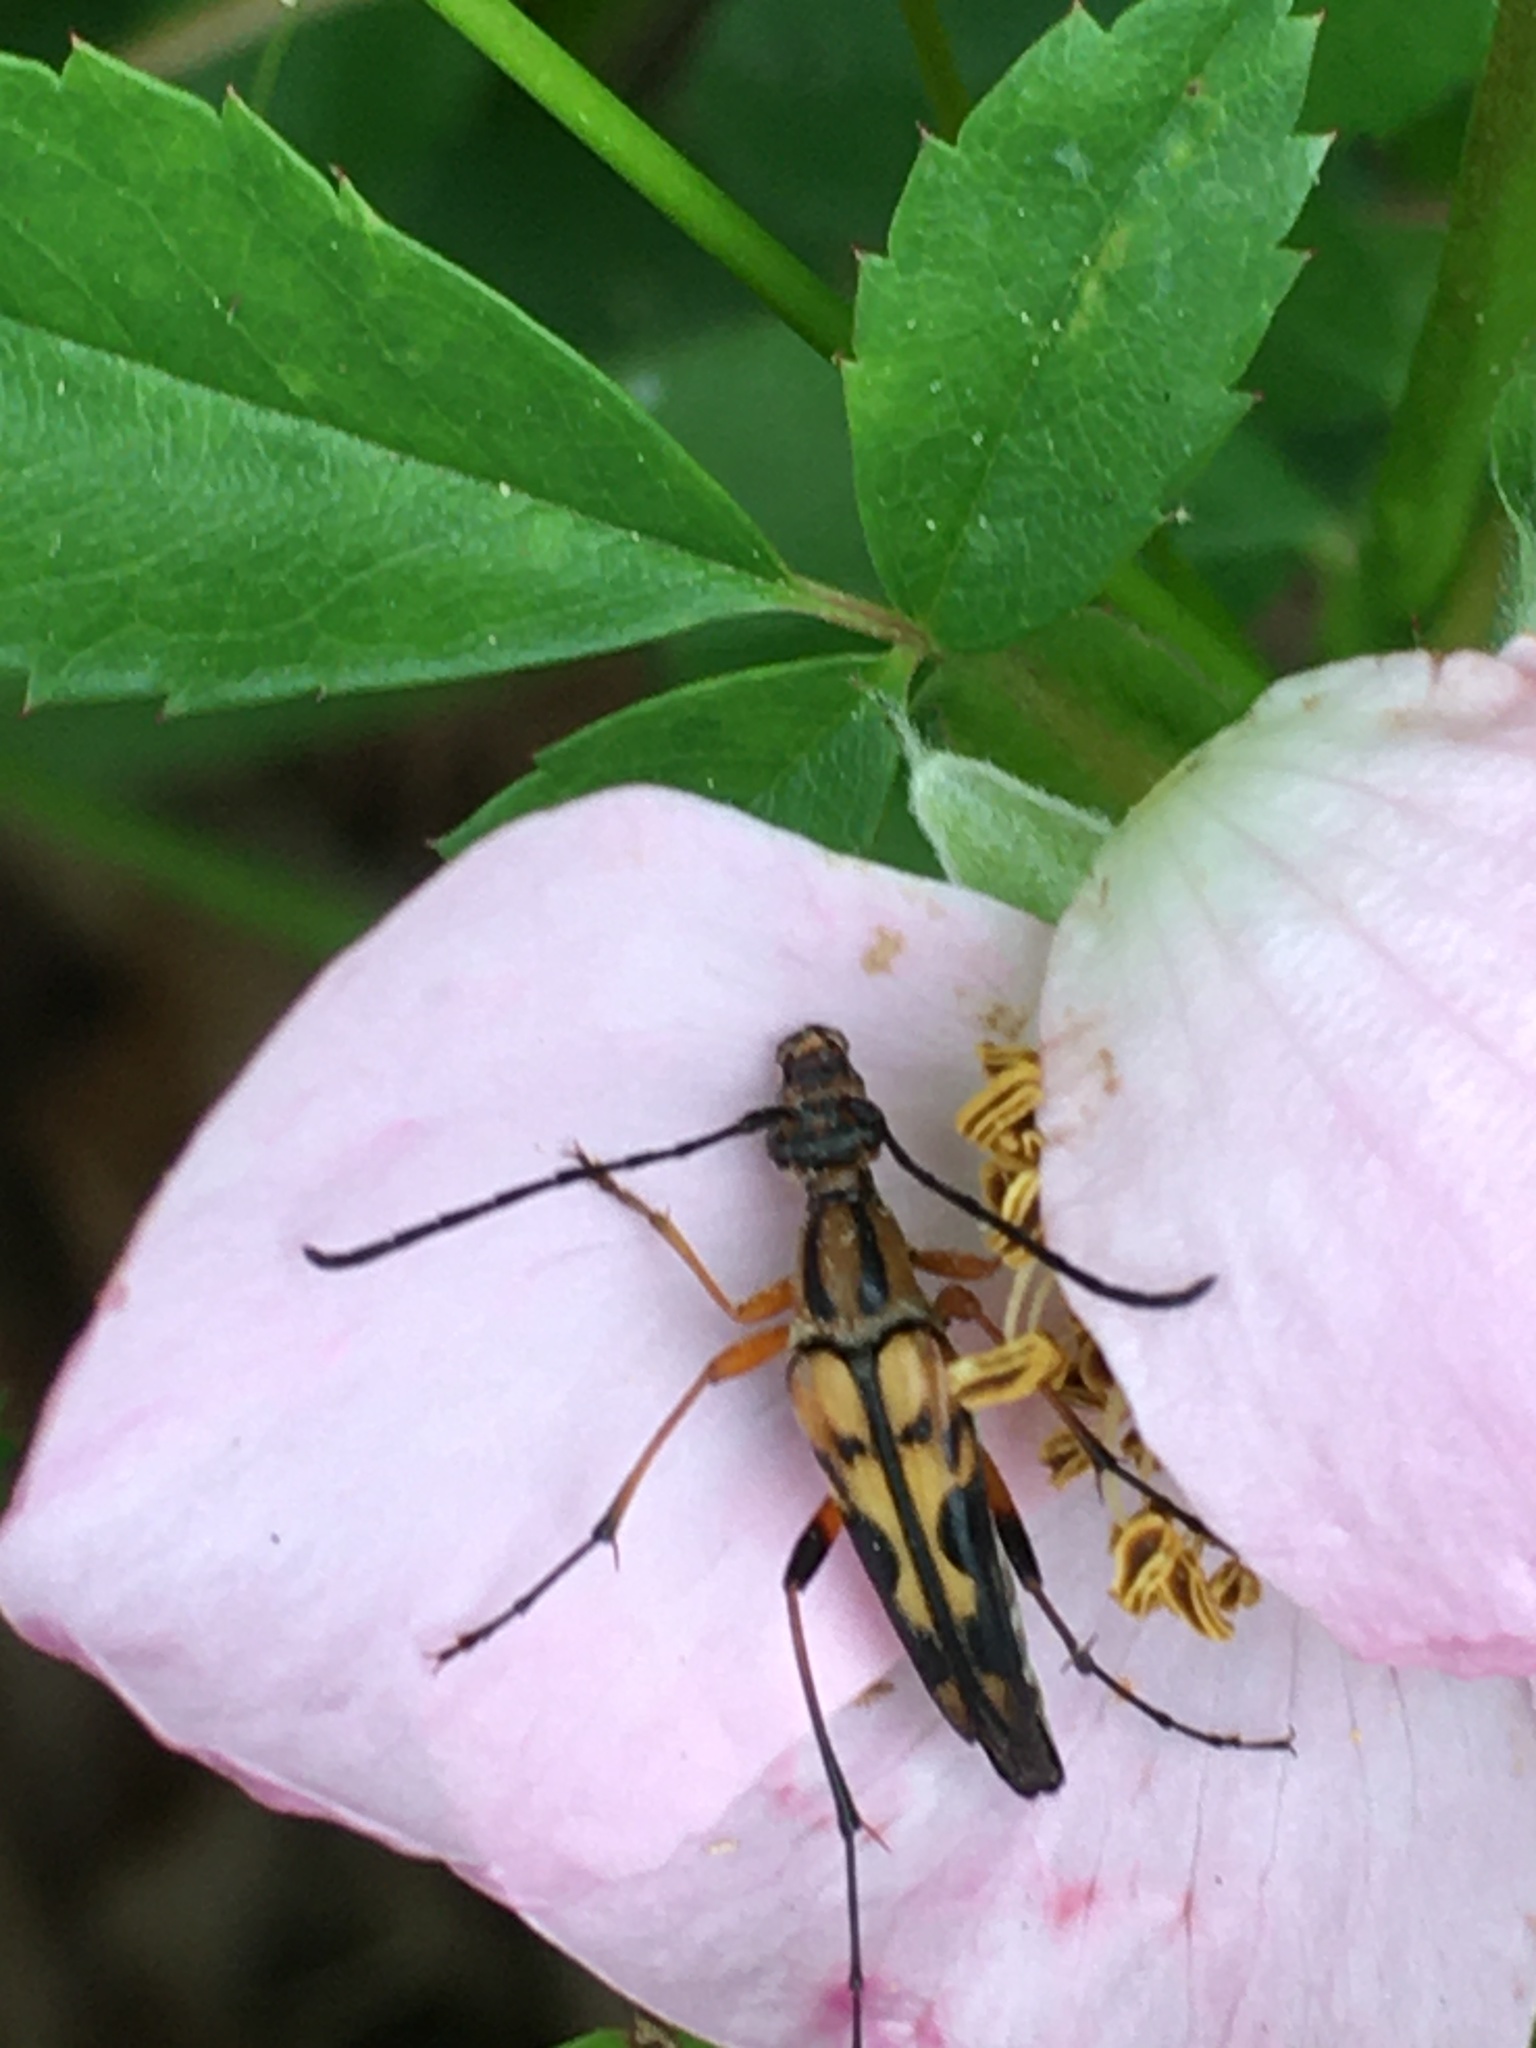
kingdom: Animalia
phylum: Arthropoda
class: Insecta
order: Coleoptera
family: Cerambycidae
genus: Strangalia
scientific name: Strangalia famelica
